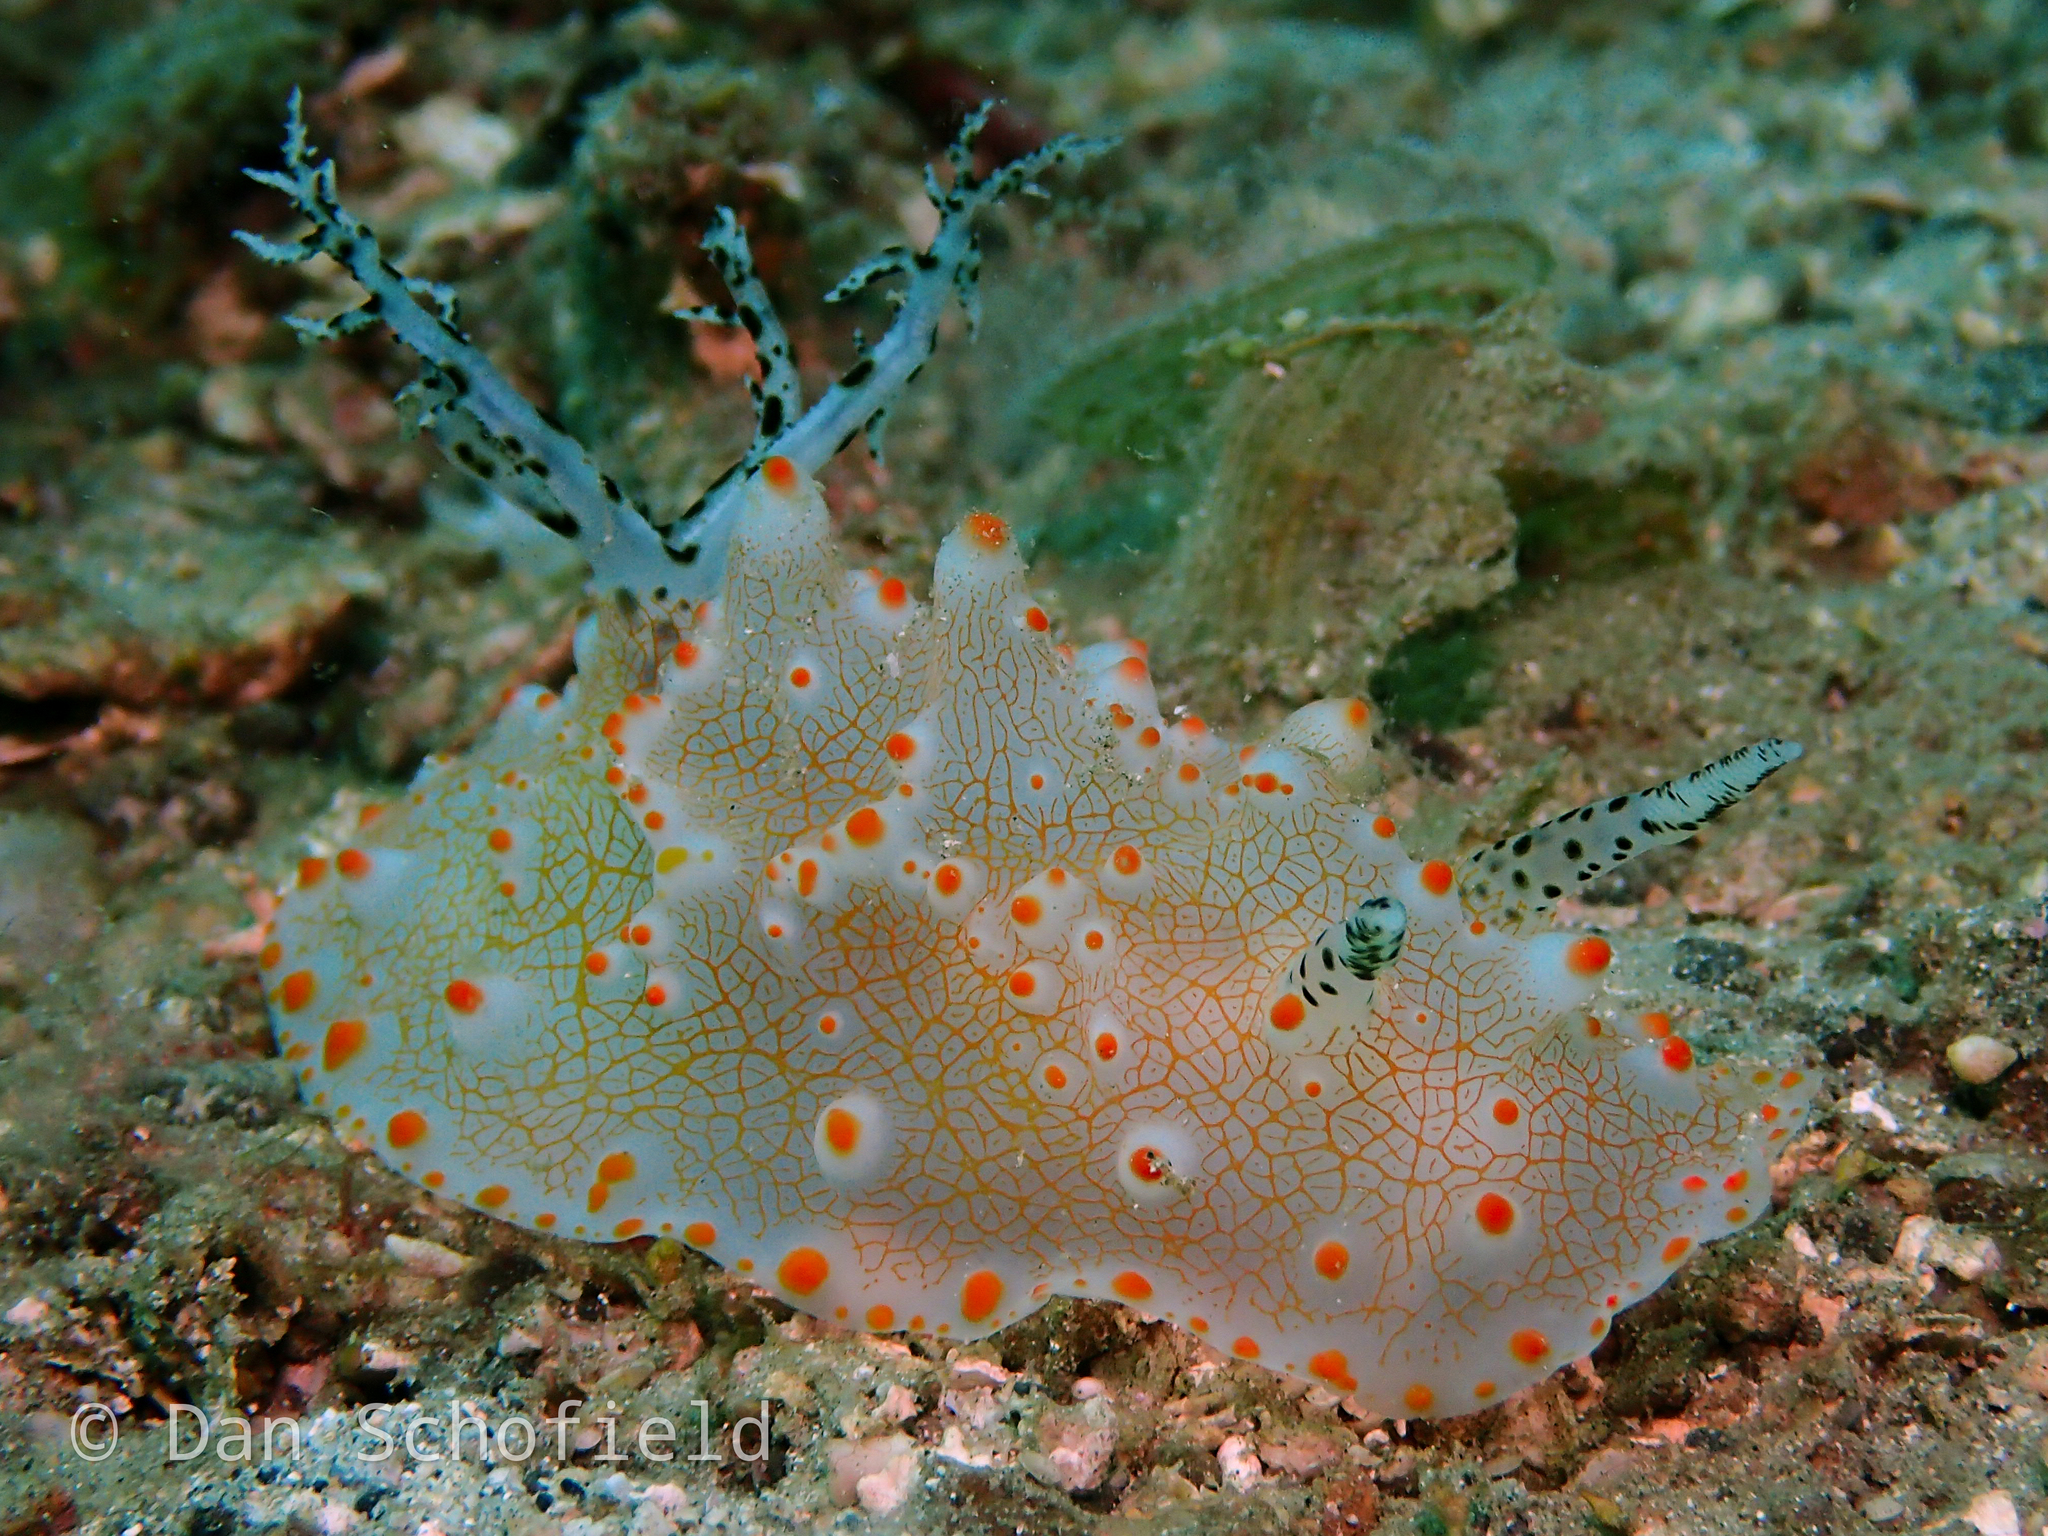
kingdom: Animalia
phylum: Mollusca
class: Gastropoda
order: Nudibranchia
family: Discodorididae
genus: Halgerda
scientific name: Halgerda batangas
